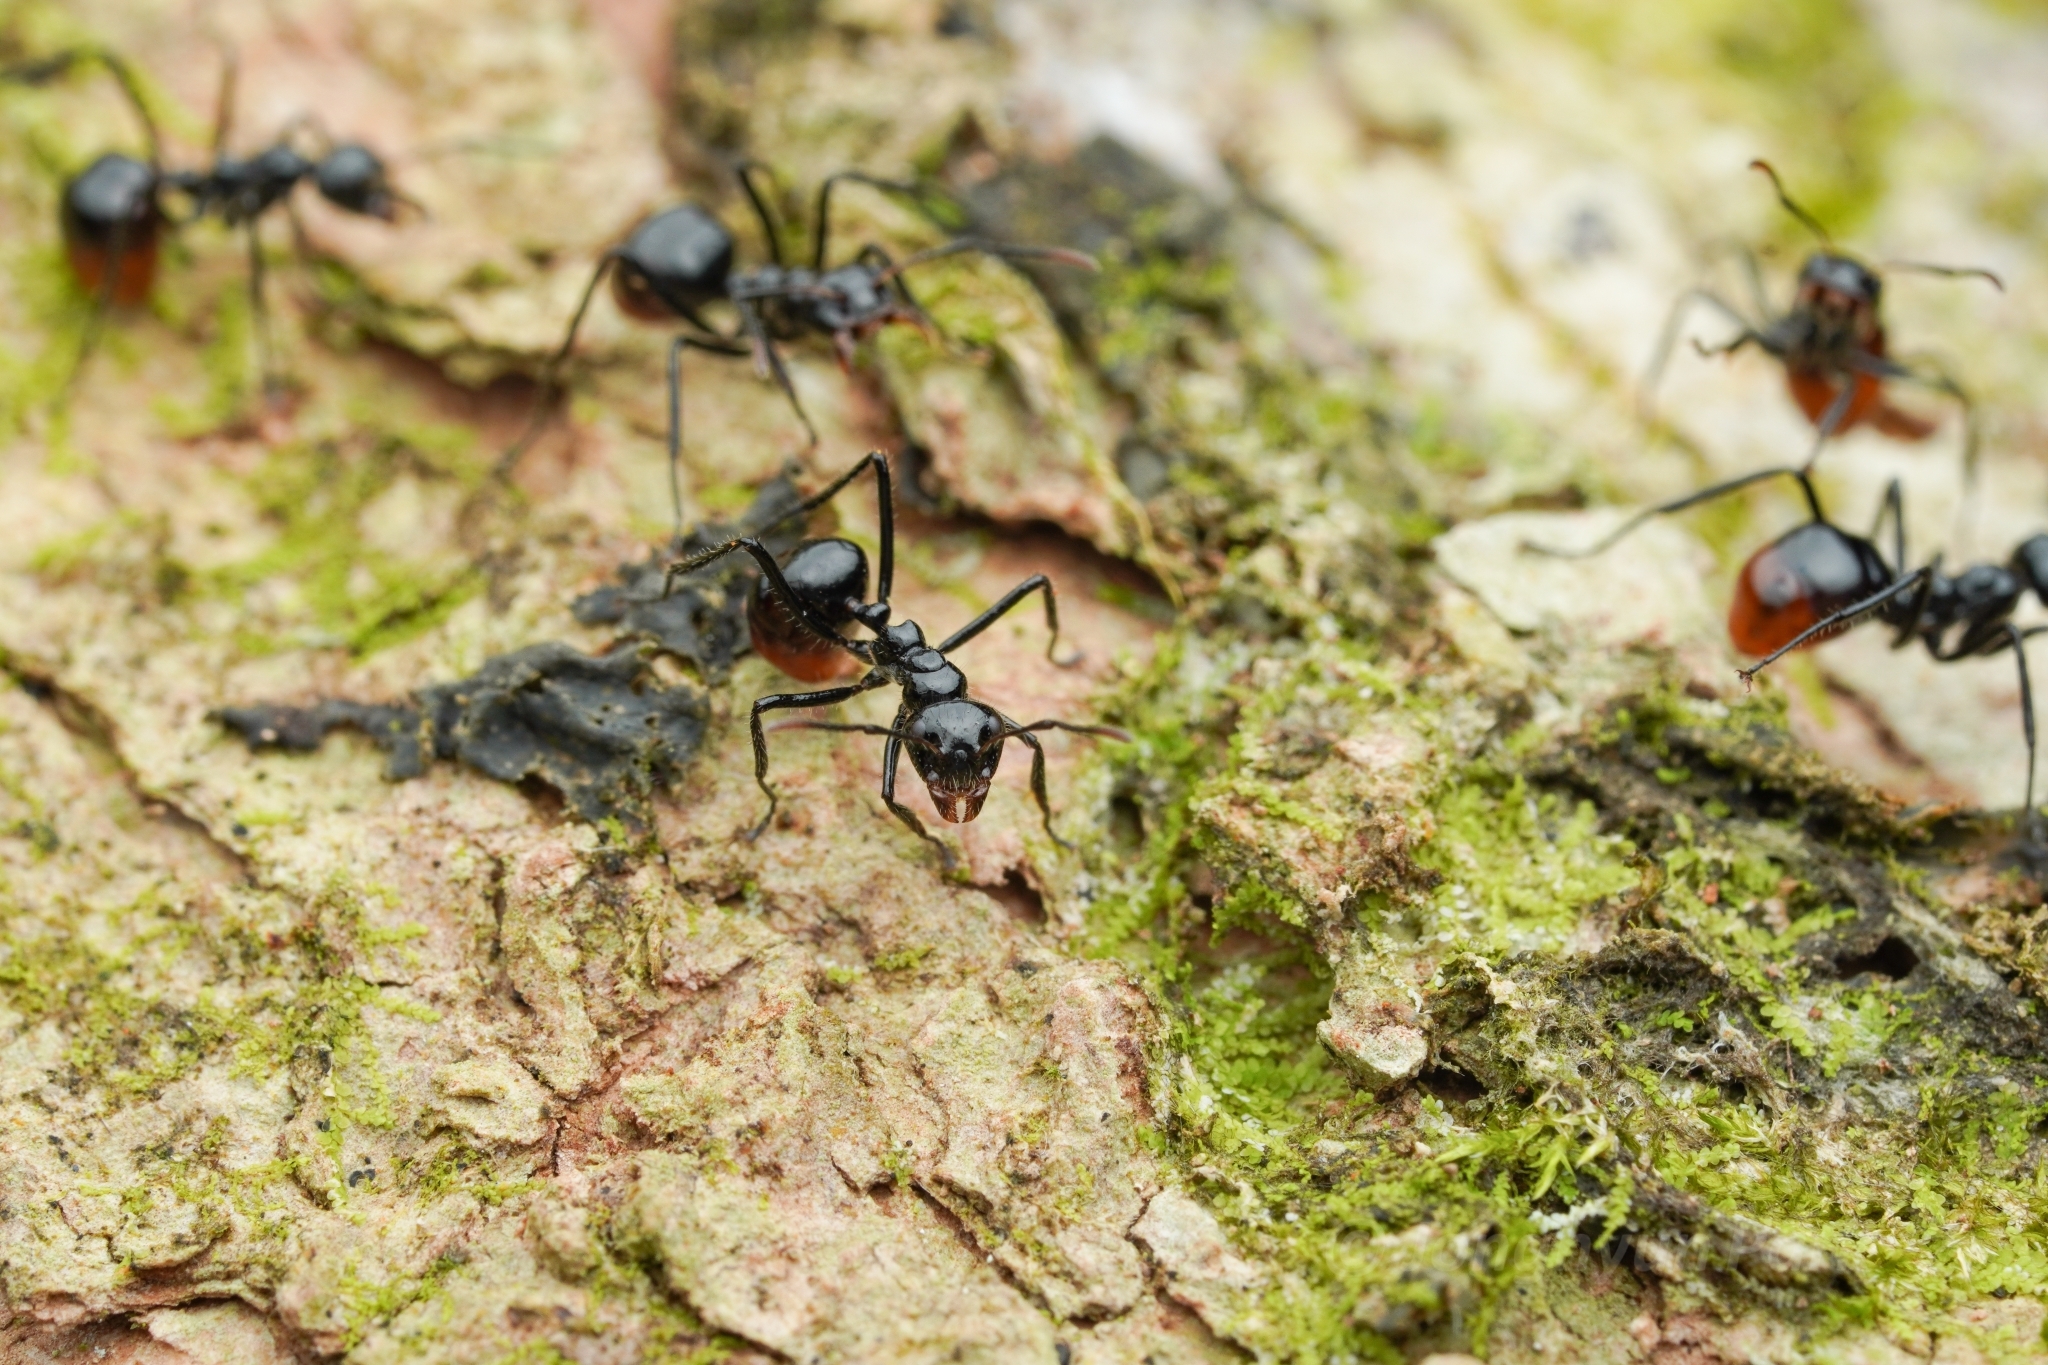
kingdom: Animalia
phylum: Arthropoda
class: Insecta
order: Hymenoptera
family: Formicidae
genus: Dolichoderus
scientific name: Dolichoderus sulcaticeps
